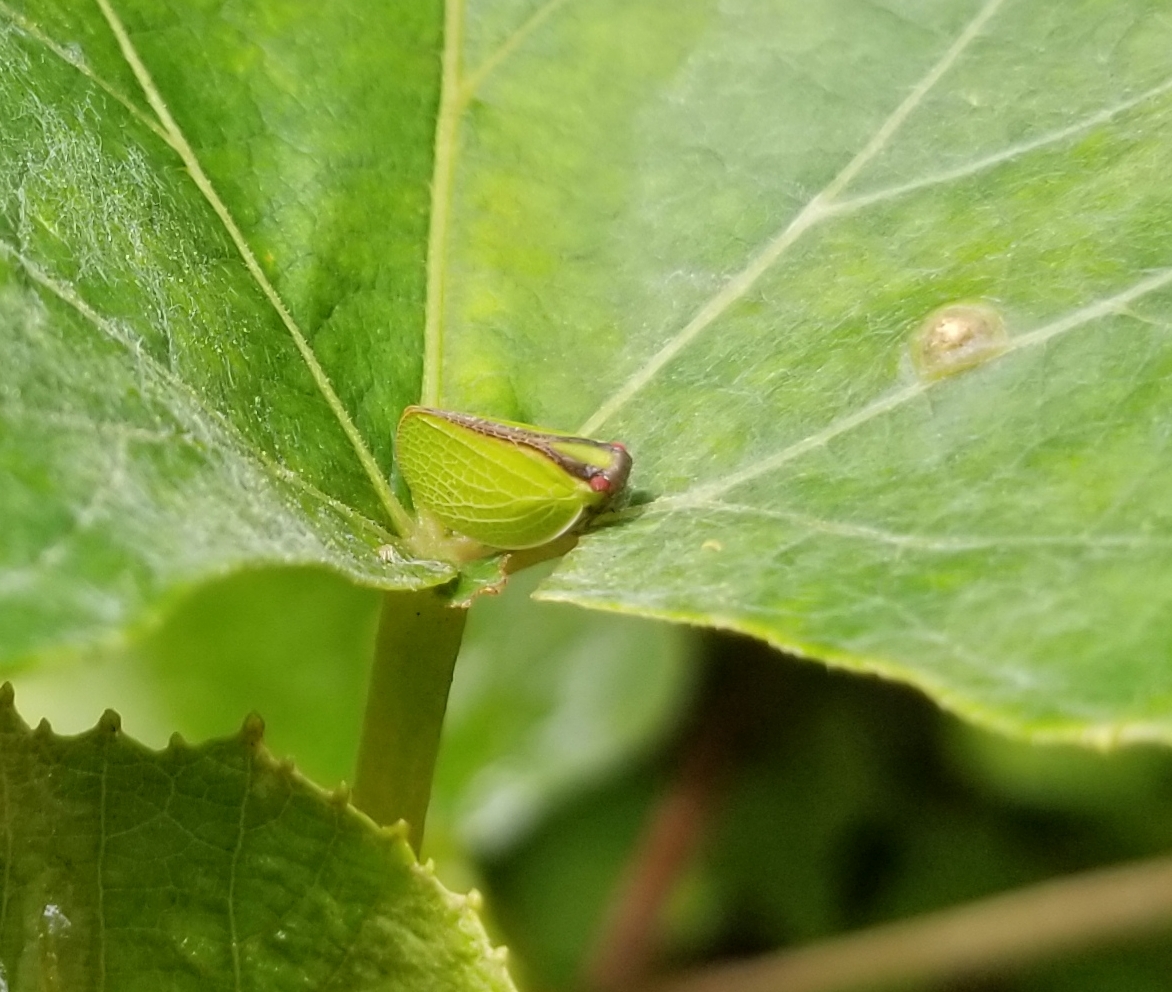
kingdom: Animalia
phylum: Arthropoda
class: Insecta
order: Hemiptera
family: Acanaloniidae
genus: Acanalonia
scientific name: Acanalonia bivittata
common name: Two-striped planthopper
